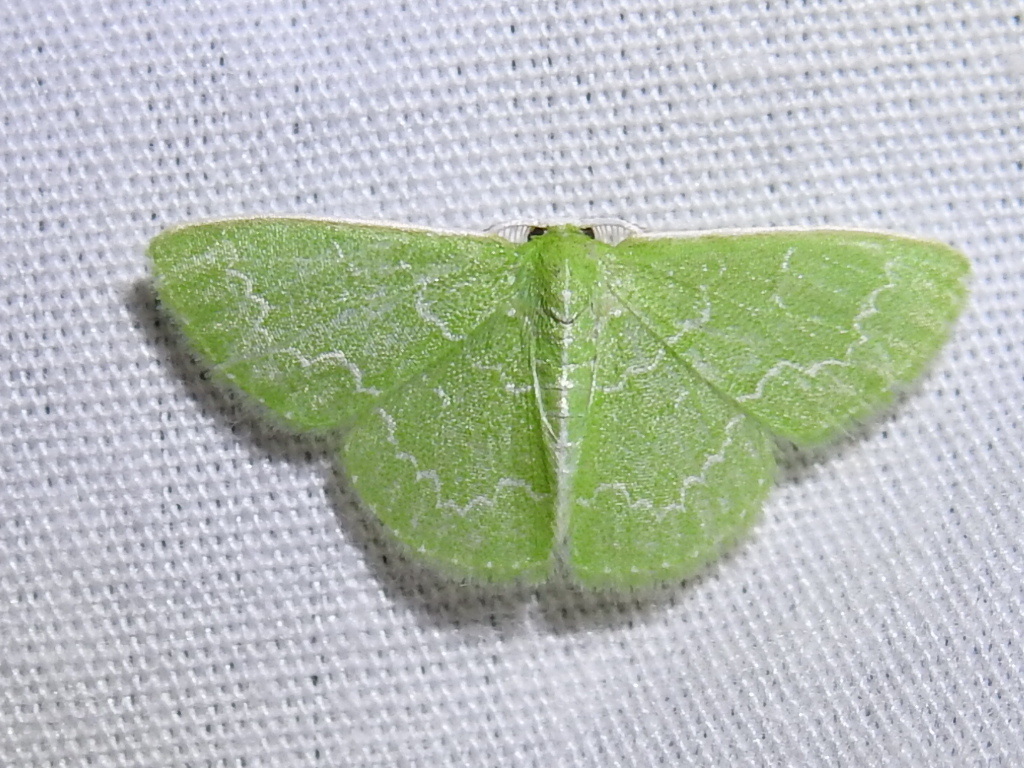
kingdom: Animalia
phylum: Arthropoda
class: Insecta
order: Lepidoptera
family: Geometridae
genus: Synchlora
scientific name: Synchlora frondaria
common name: Southern emerald
